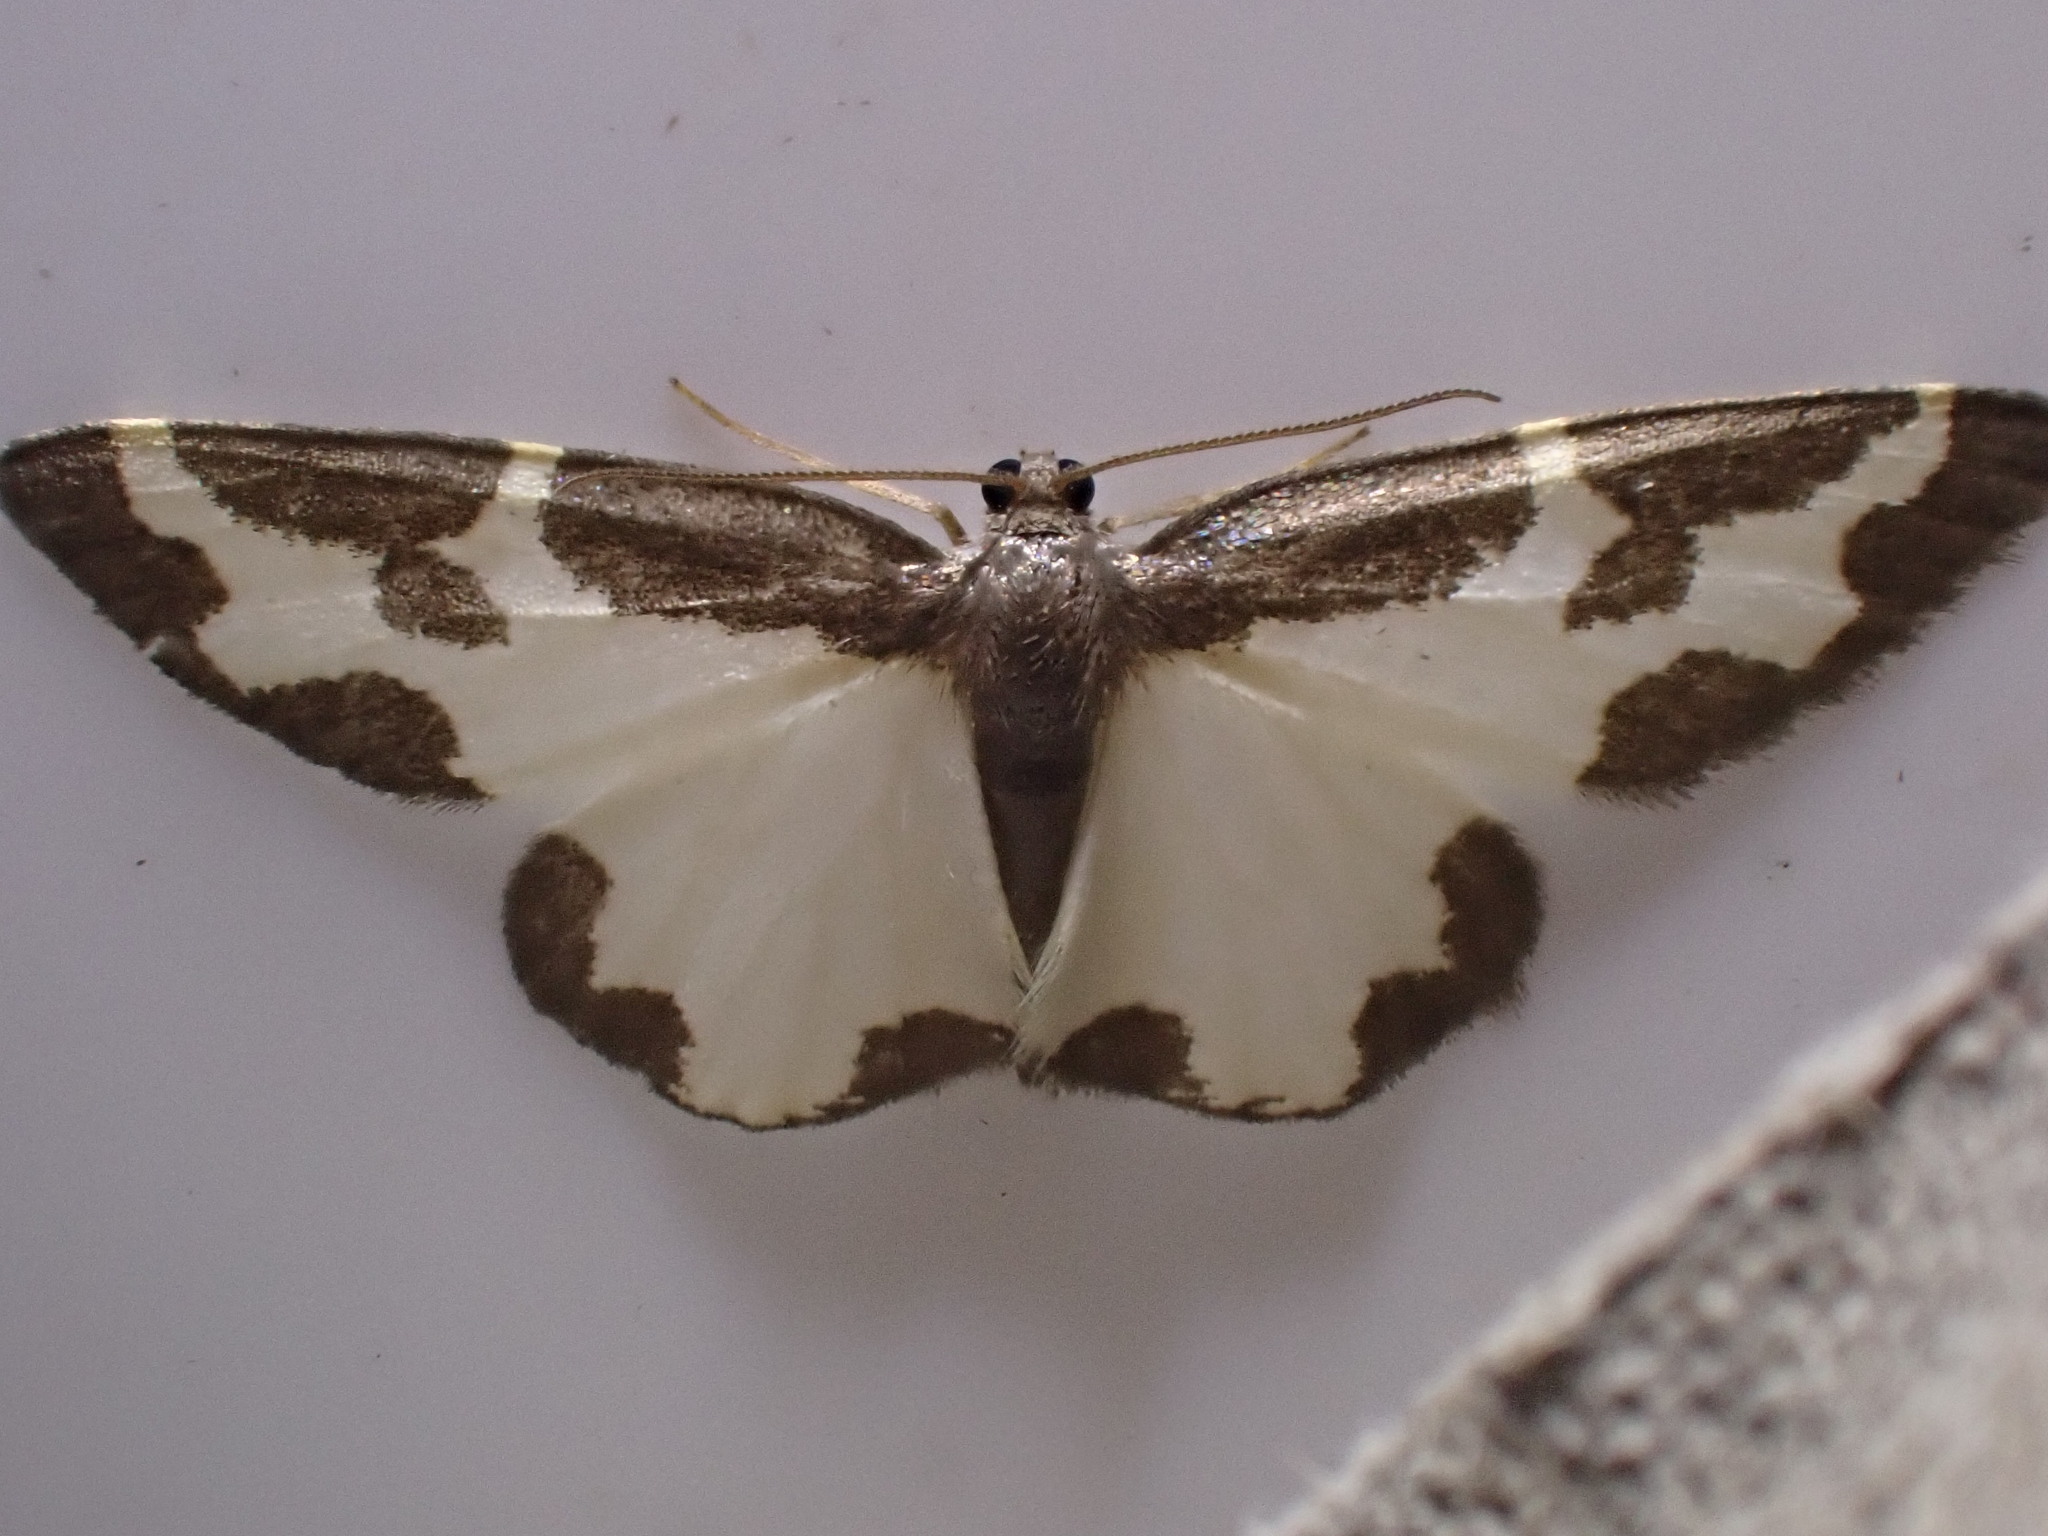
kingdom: Animalia
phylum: Arthropoda
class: Insecta
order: Lepidoptera
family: Geometridae
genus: Lomaspilis
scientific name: Lomaspilis marginata
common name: Clouded border
